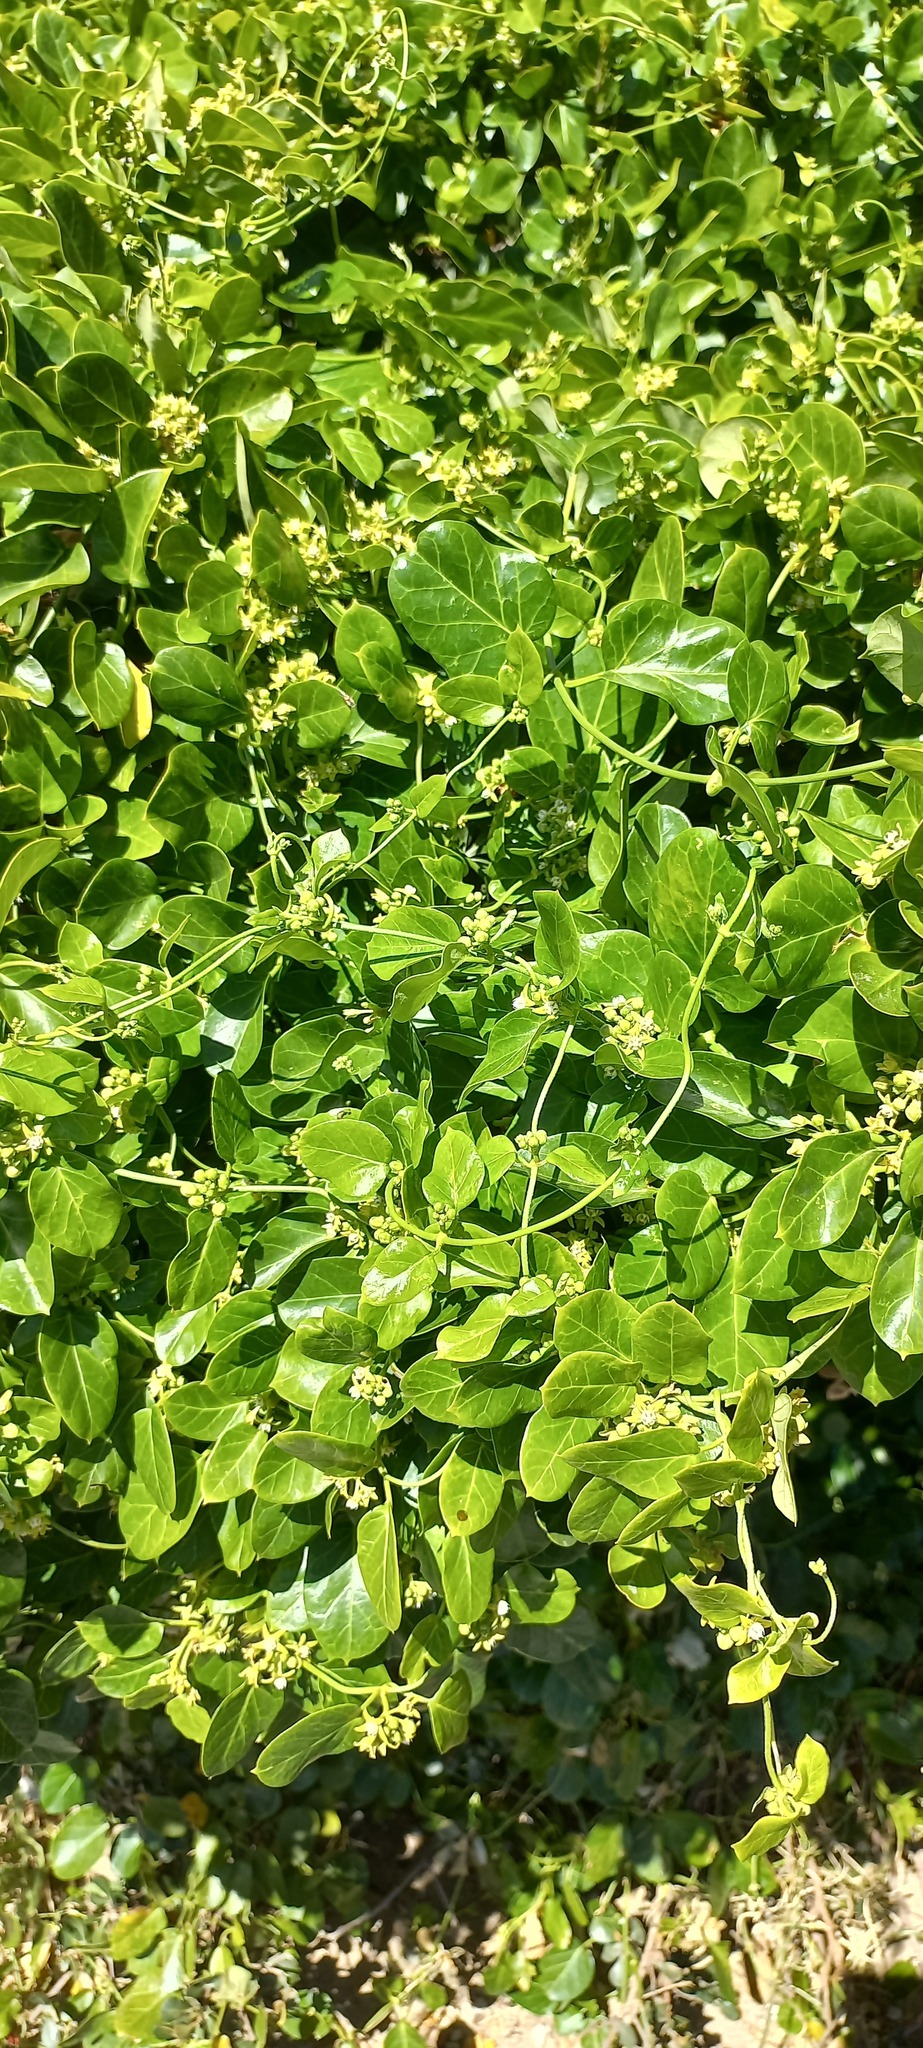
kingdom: Plantae
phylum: Tracheophyta
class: Magnoliopsida
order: Gentianales
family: Apocynaceae
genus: Cynanchum
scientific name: Cynanchum obtusifolium
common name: Monkey-rope
